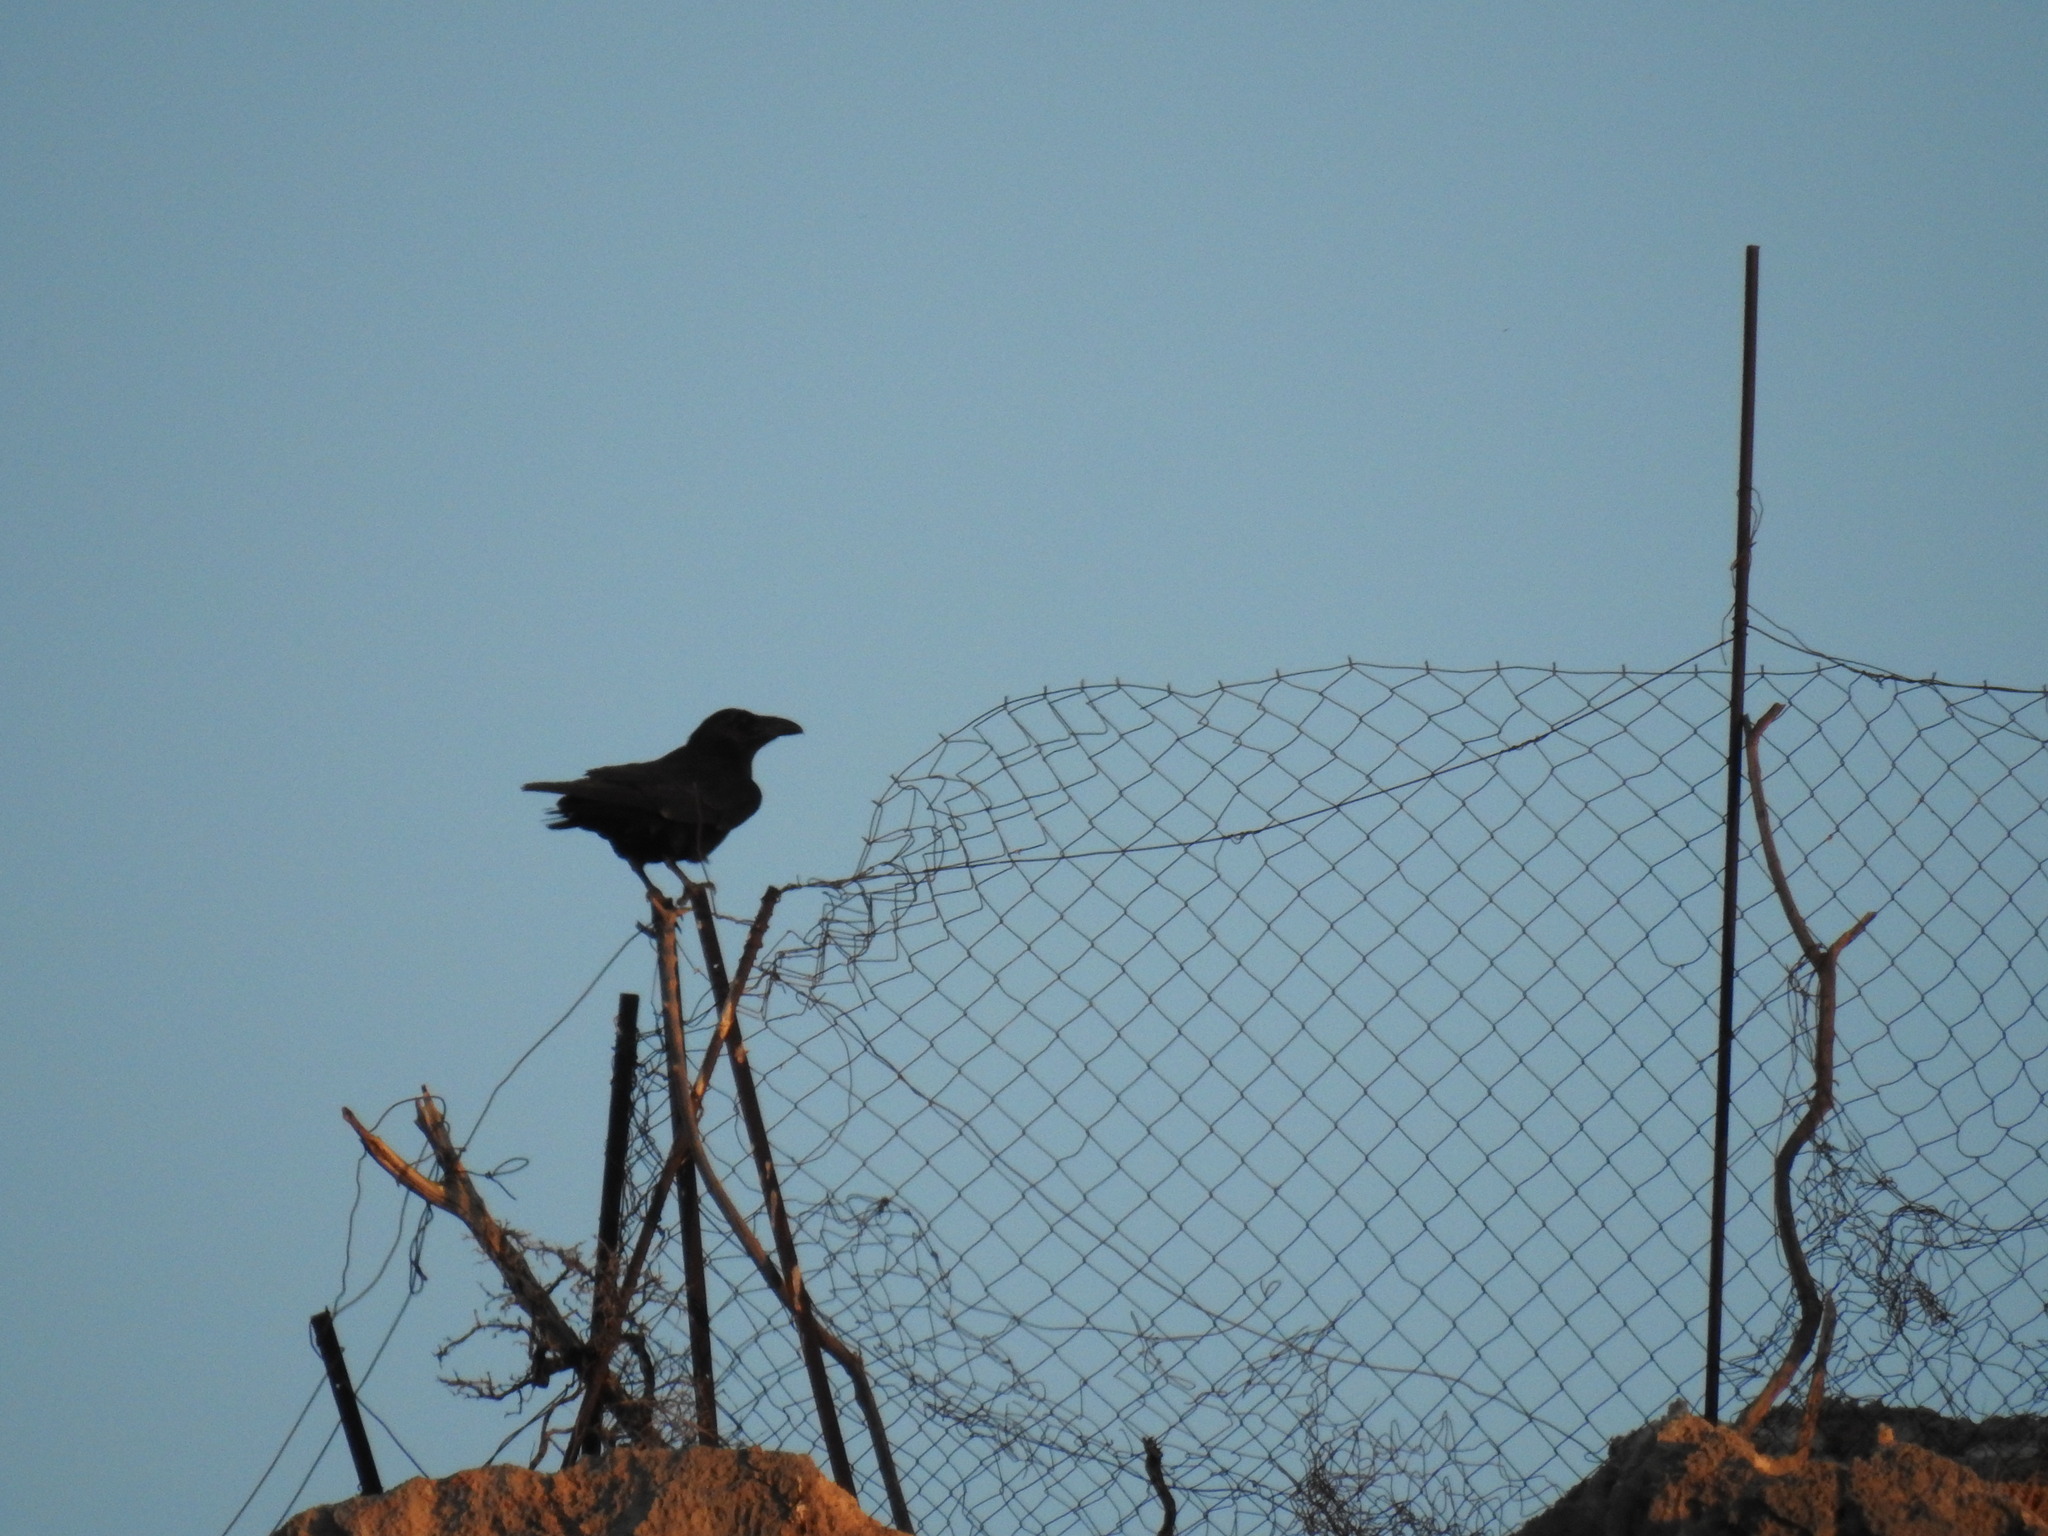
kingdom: Animalia
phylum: Chordata
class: Aves
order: Passeriformes
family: Corvidae
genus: Corvus
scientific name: Corvus corax
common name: Common raven
